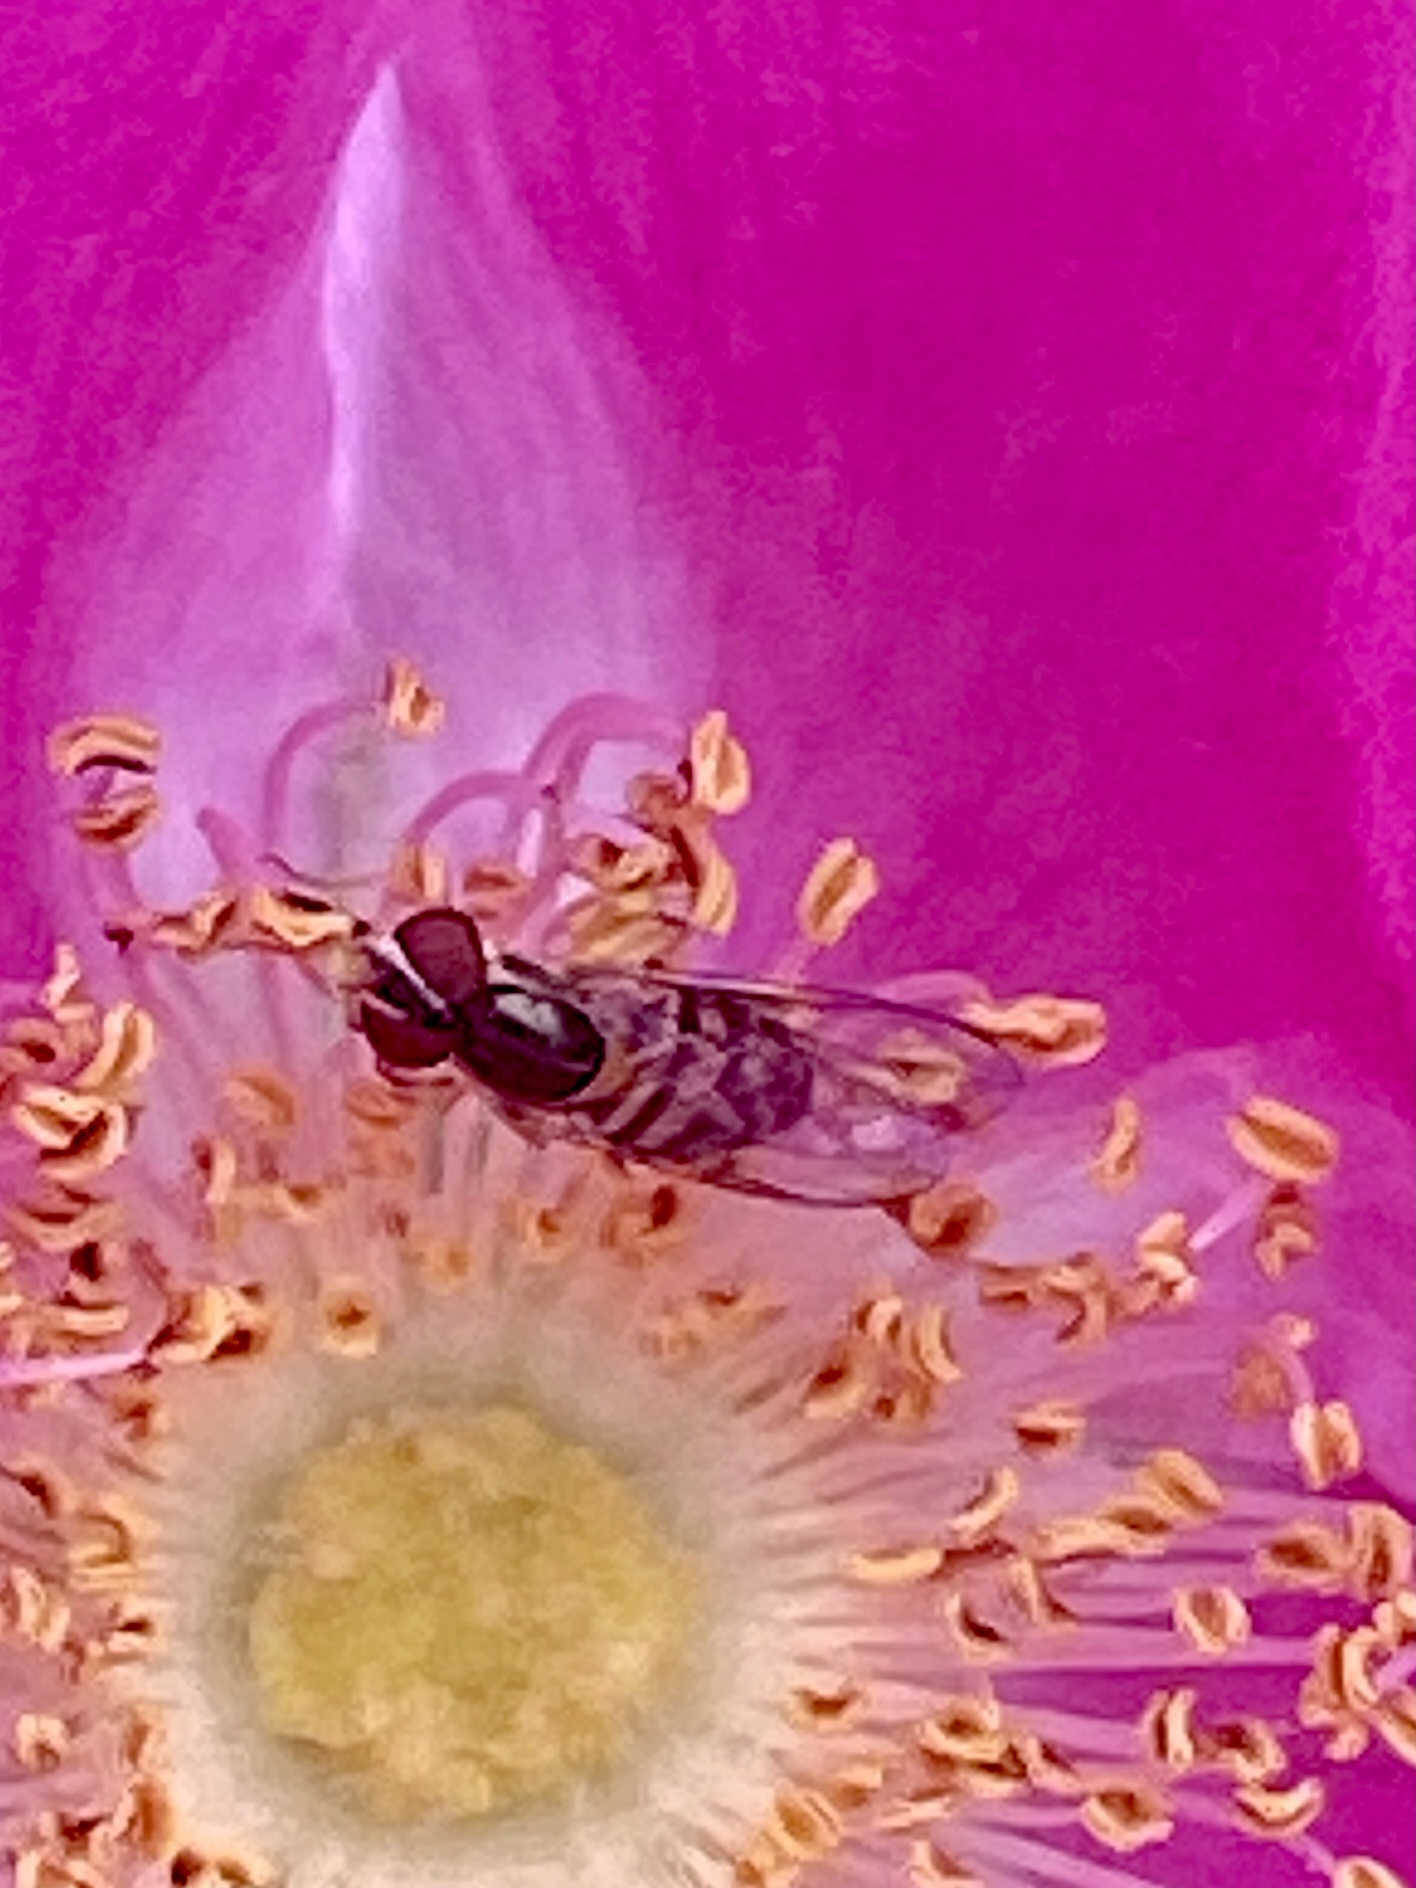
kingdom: Animalia
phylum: Arthropoda
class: Insecta
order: Diptera
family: Syrphidae
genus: Toxomerus
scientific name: Toxomerus marginatus
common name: Syrphid fly
